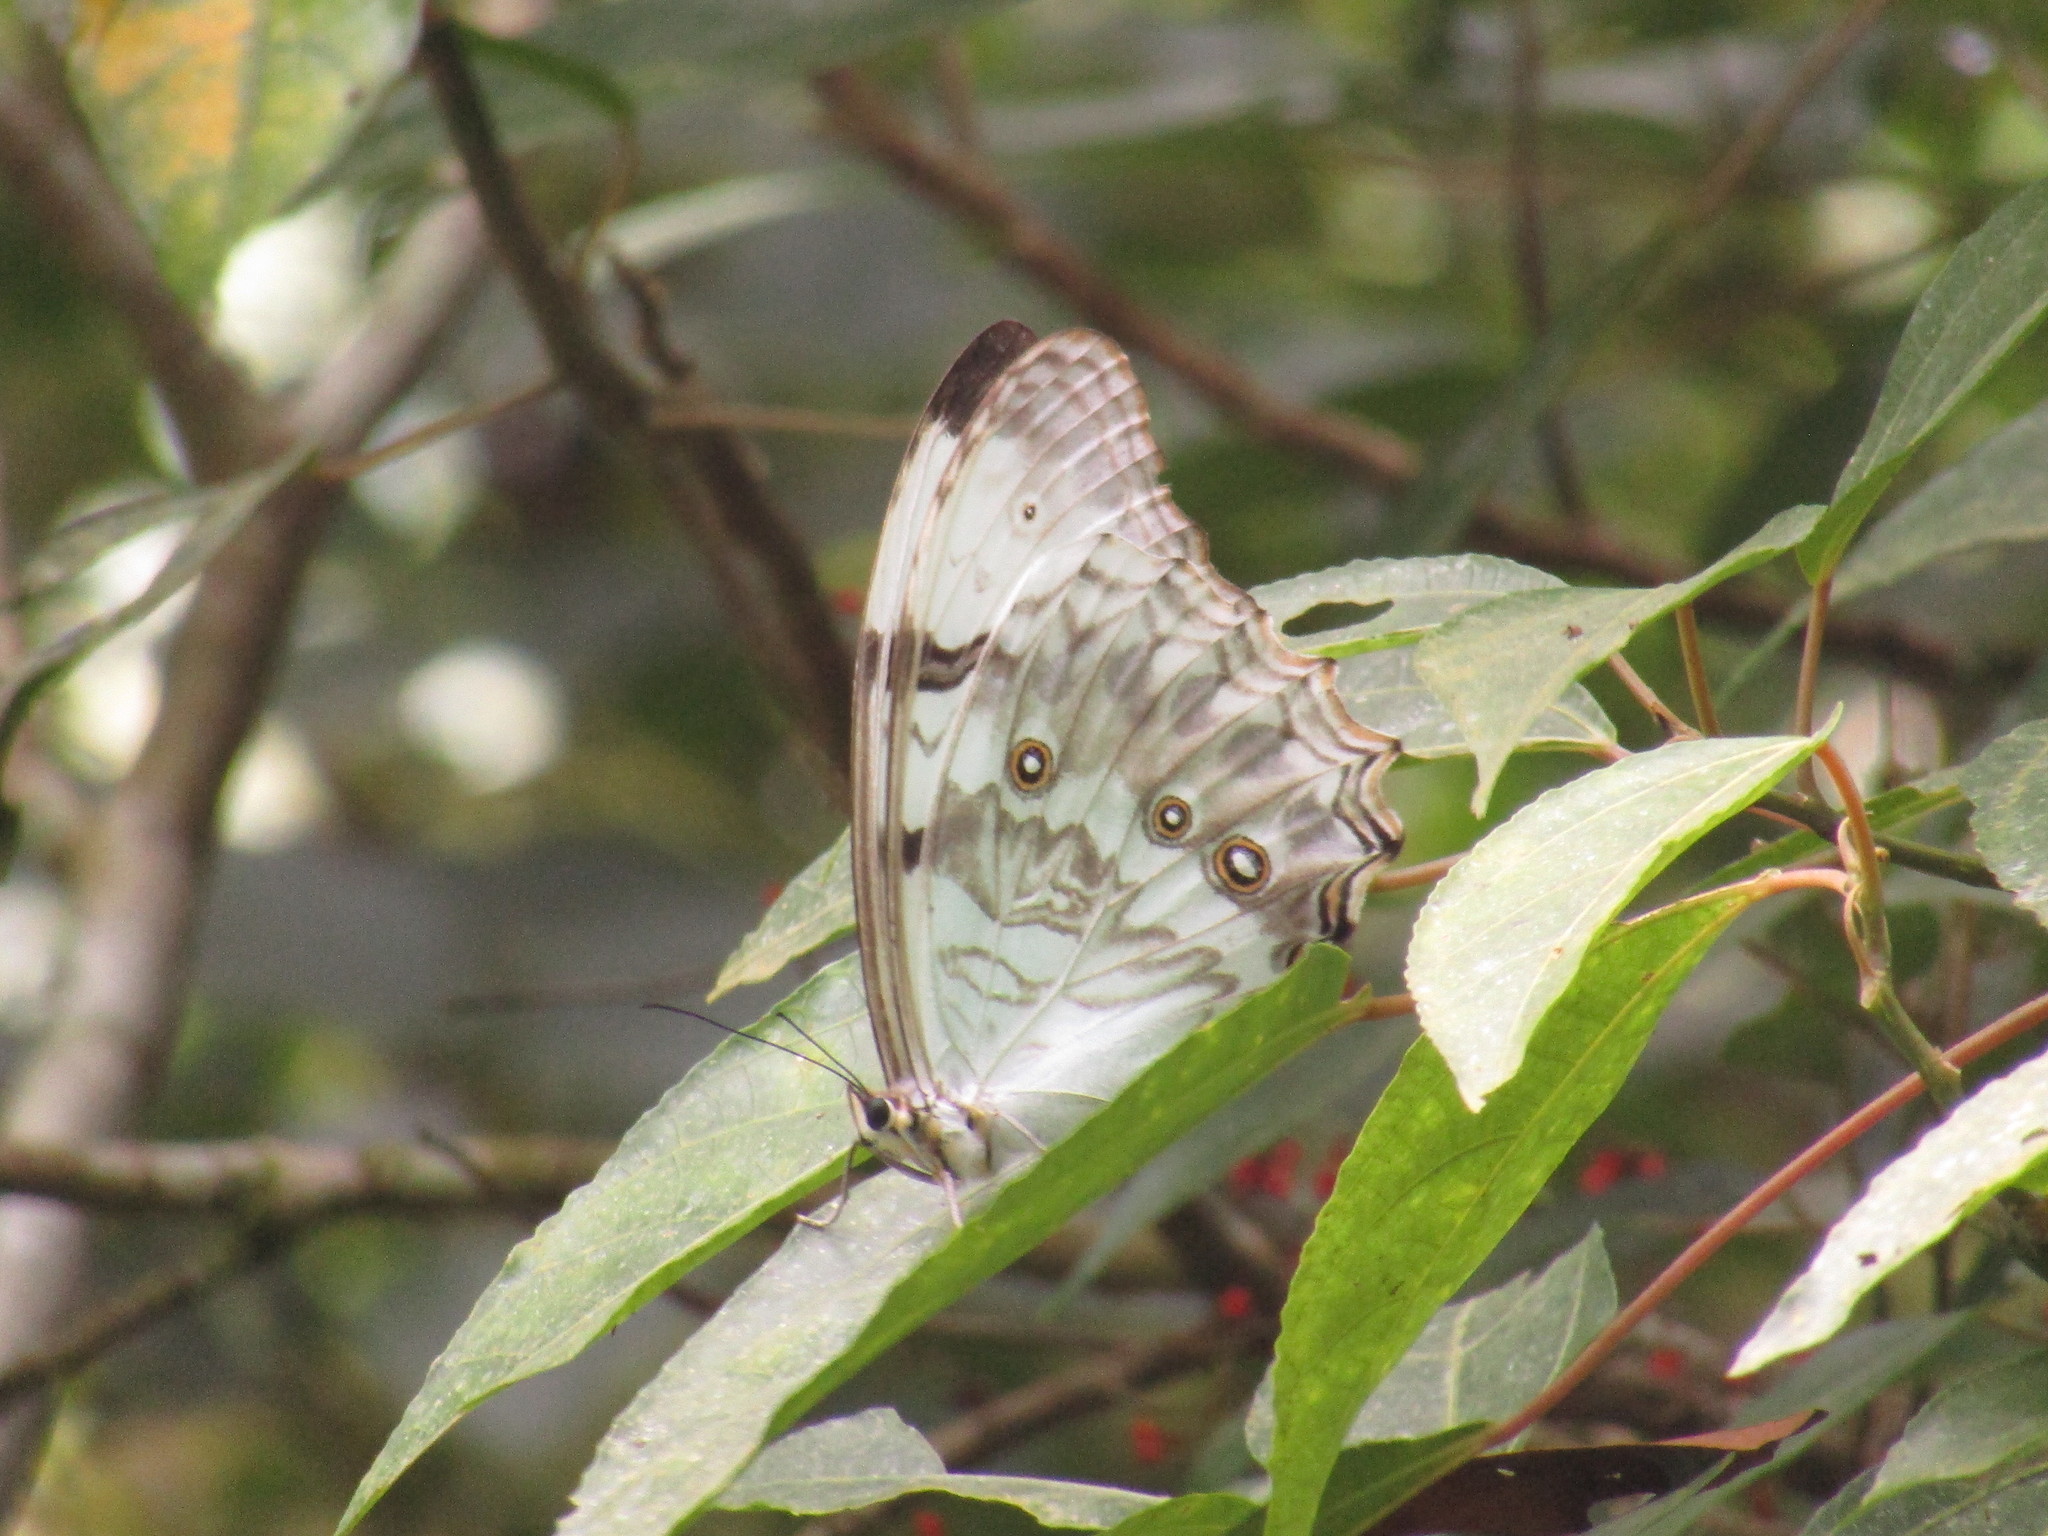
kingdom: Animalia
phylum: Arthropoda
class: Insecta
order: Lepidoptera
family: Nymphalidae
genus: Morpho
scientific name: Morpho polyphemus
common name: White morpho
